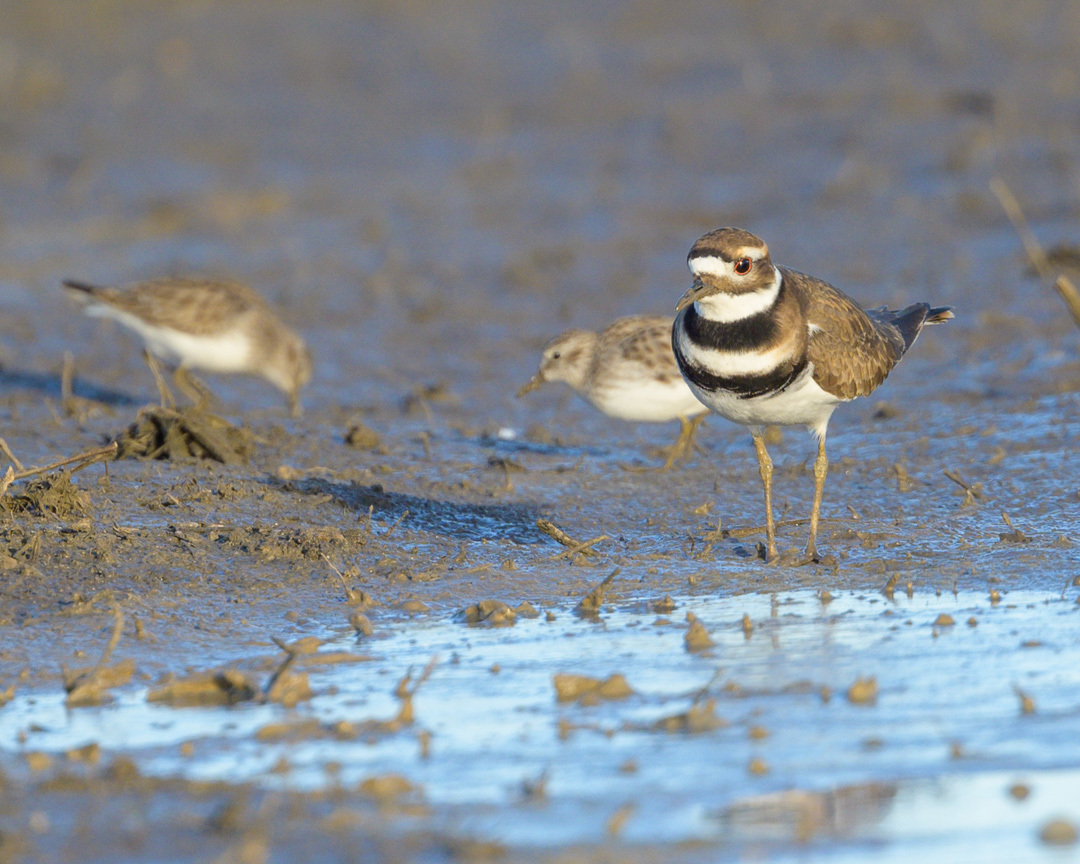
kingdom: Animalia
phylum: Chordata
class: Aves
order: Charadriiformes
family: Charadriidae
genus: Charadrius
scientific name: Charadrius vociferus
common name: Killdeer
